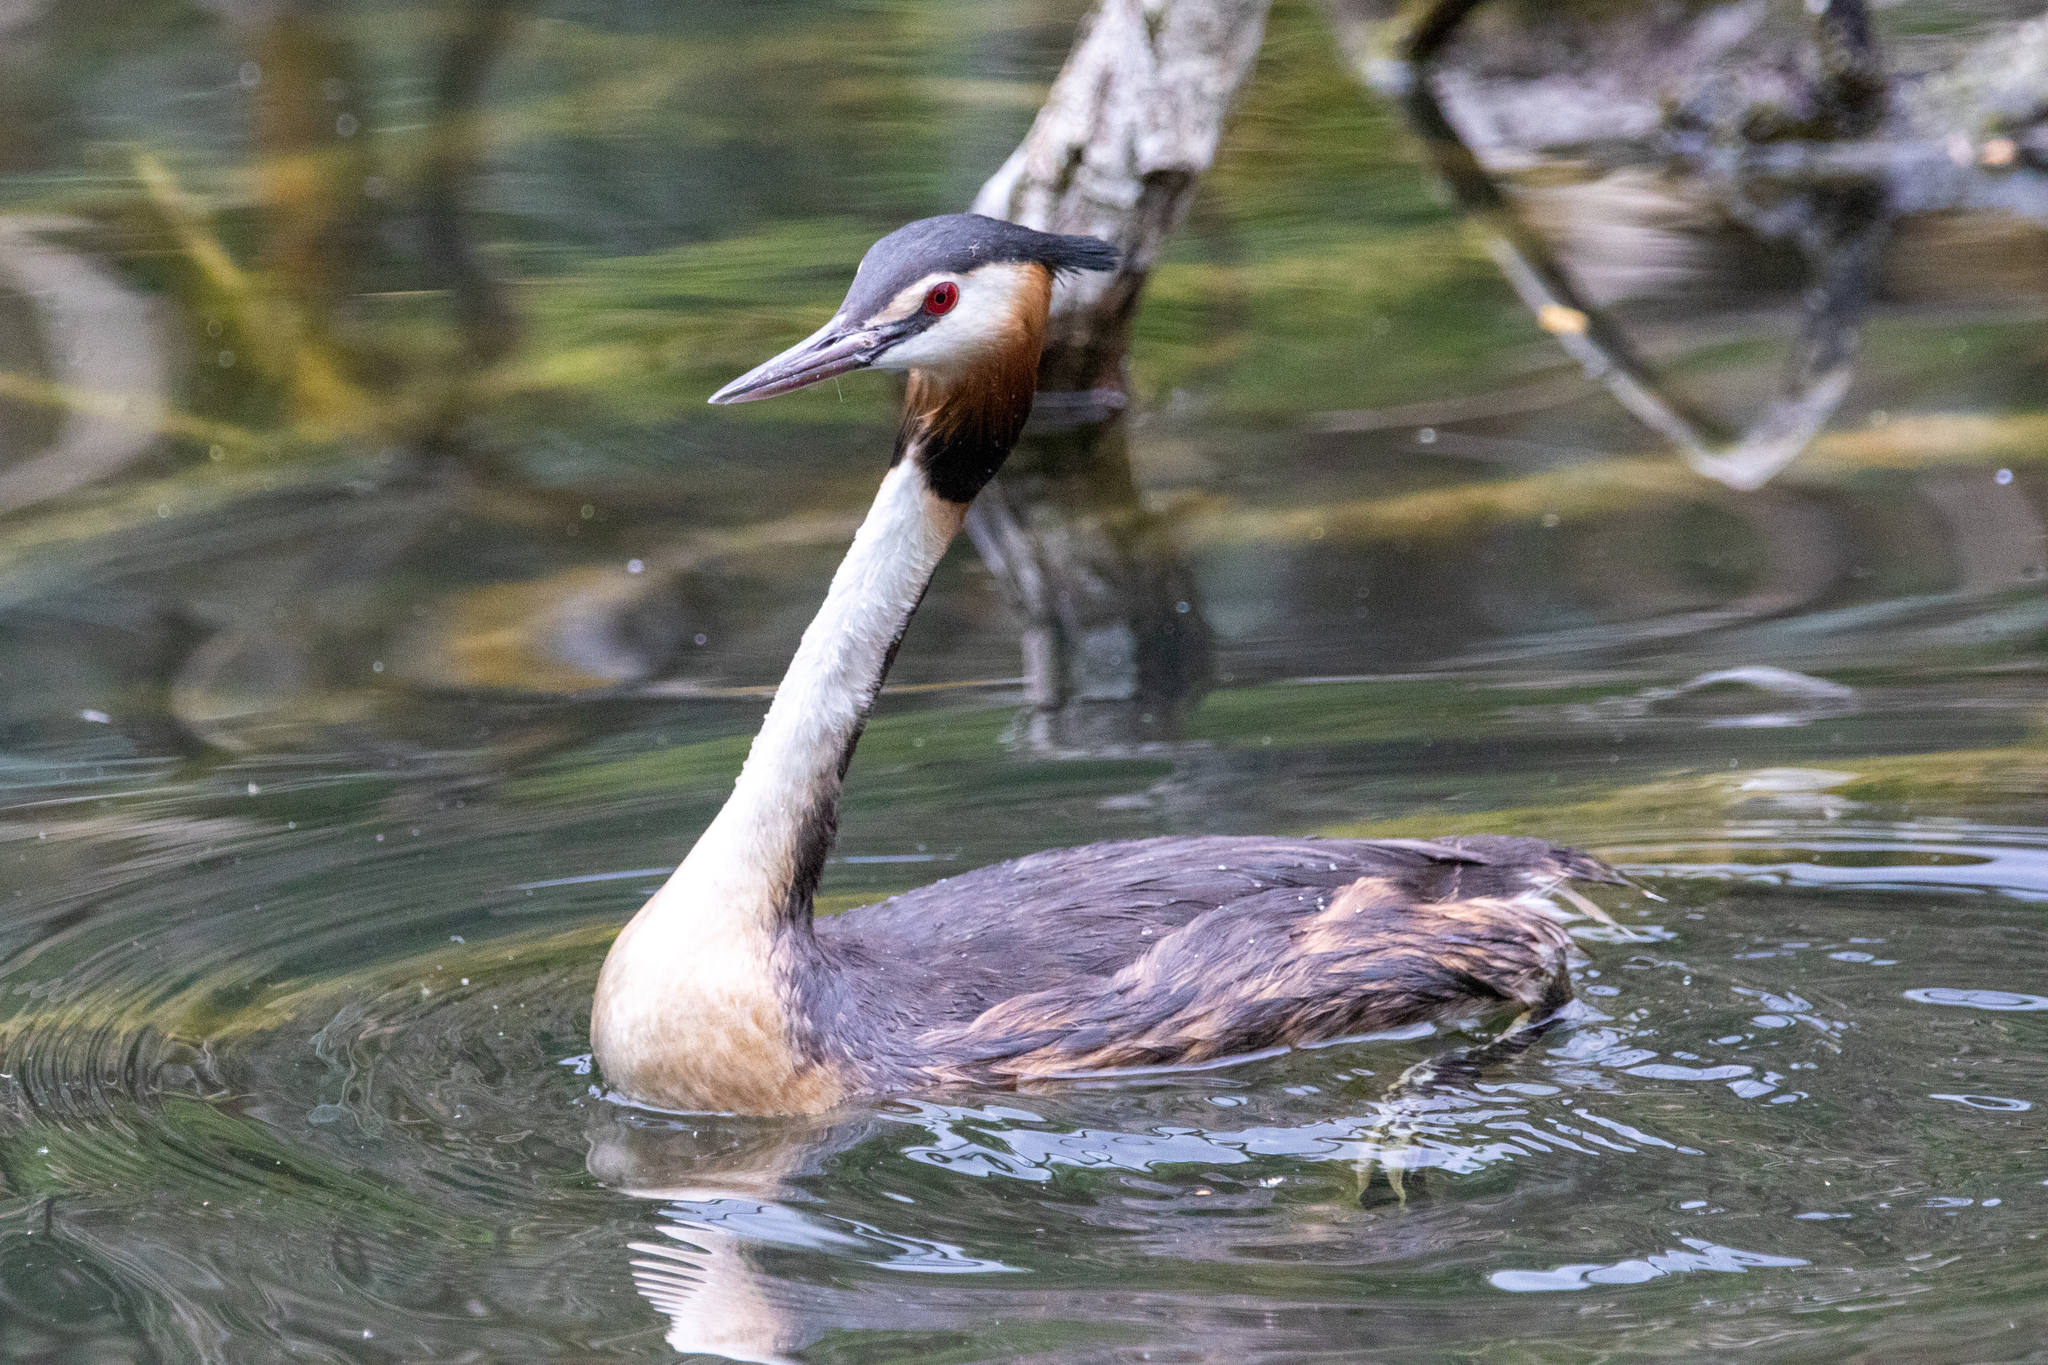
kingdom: Animalia
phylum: Chordata
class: Aves
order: Podicipediformes
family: Podicipedidae
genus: Podiceps
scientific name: Podiceps cristatus
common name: Great crested grebe
